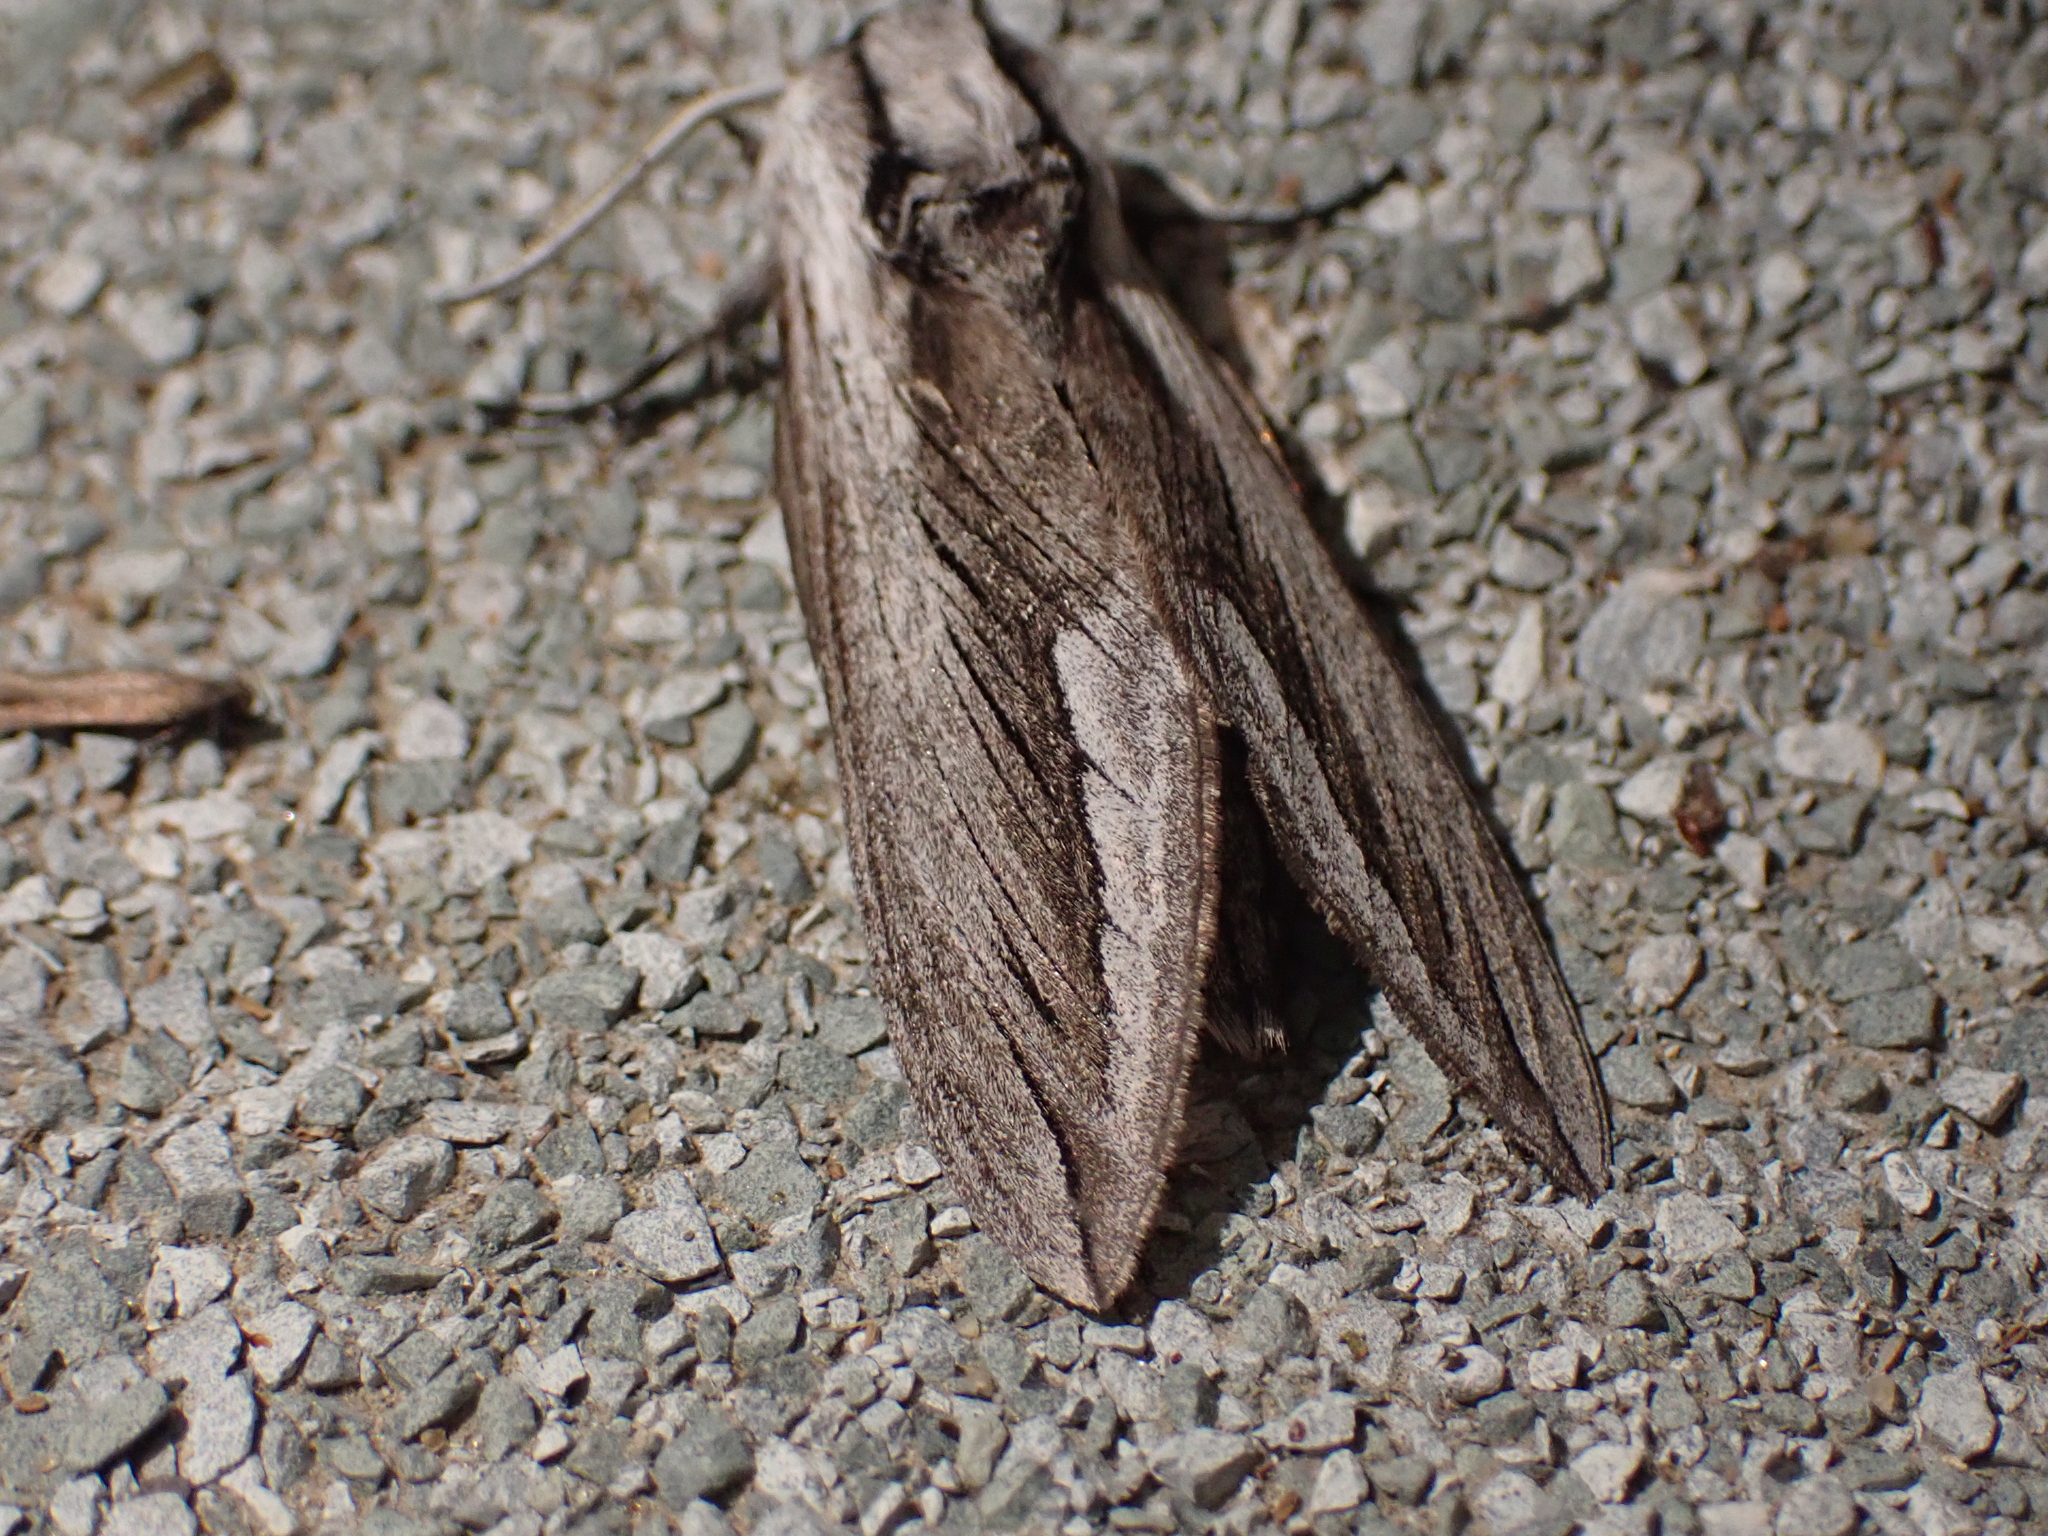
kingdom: Animalia
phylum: Arthropoda
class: Insecta
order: Lepidoptera
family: Sphingidae
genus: Sphinx
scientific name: Sphinx vashti
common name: Snowberry sphinx
